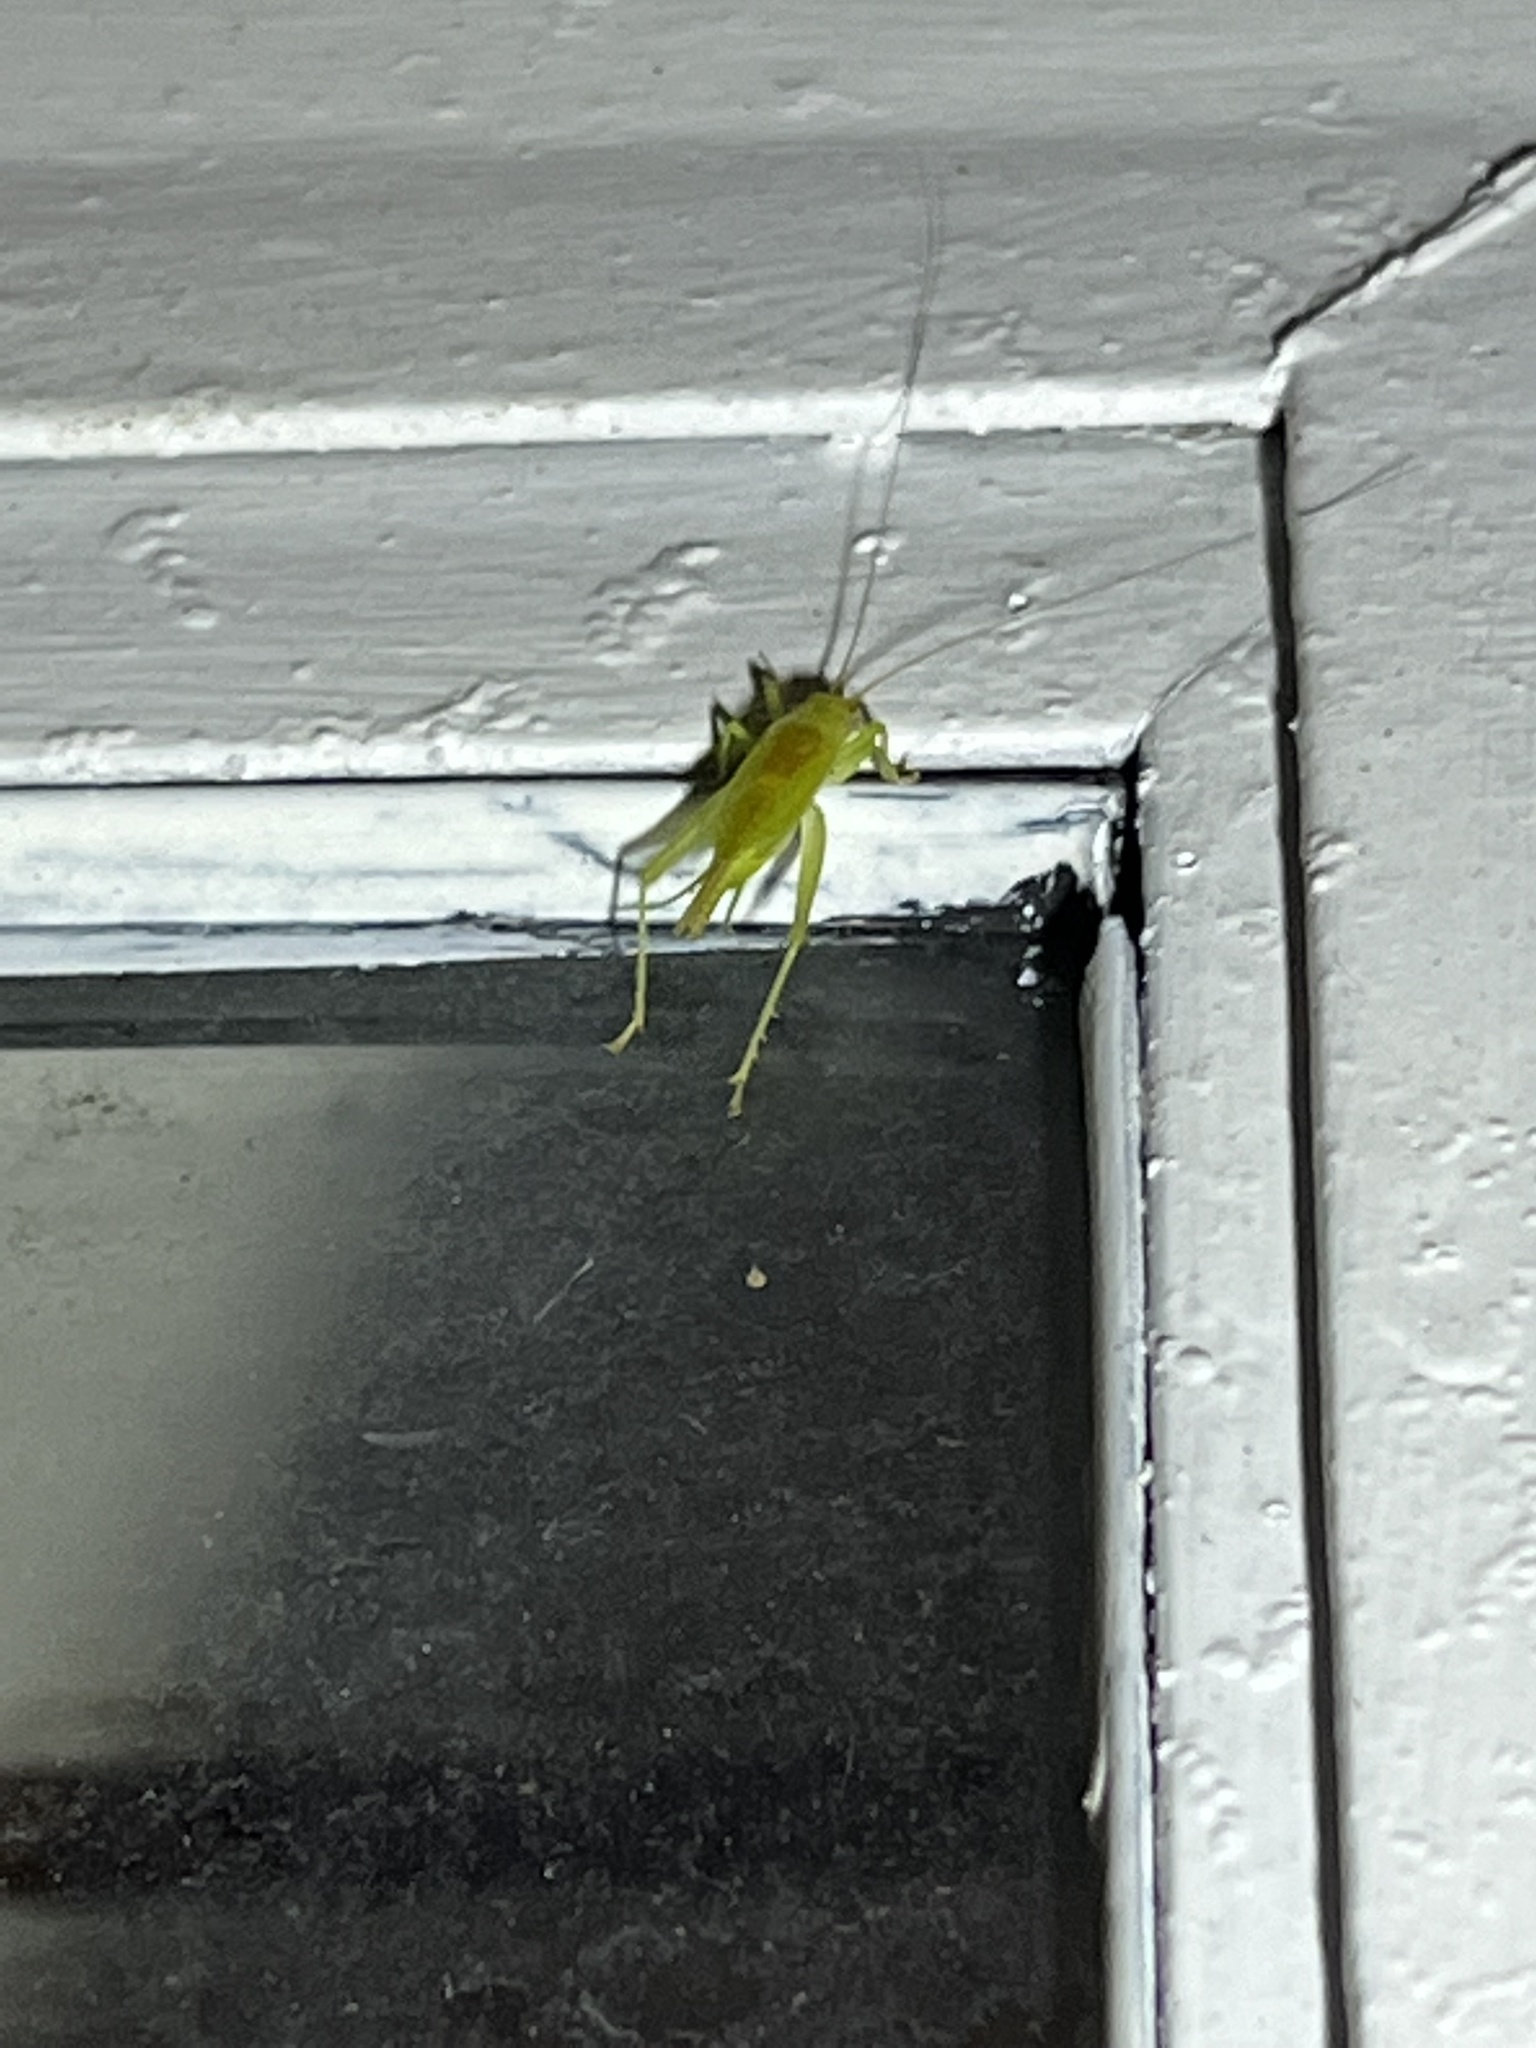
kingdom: Animalia
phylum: Arthropoda
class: Insecta
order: Orthoptera
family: Trigonidiidae
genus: Cyrtoxipha
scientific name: Cyrtoxipha columbiana
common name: Columbian trig
